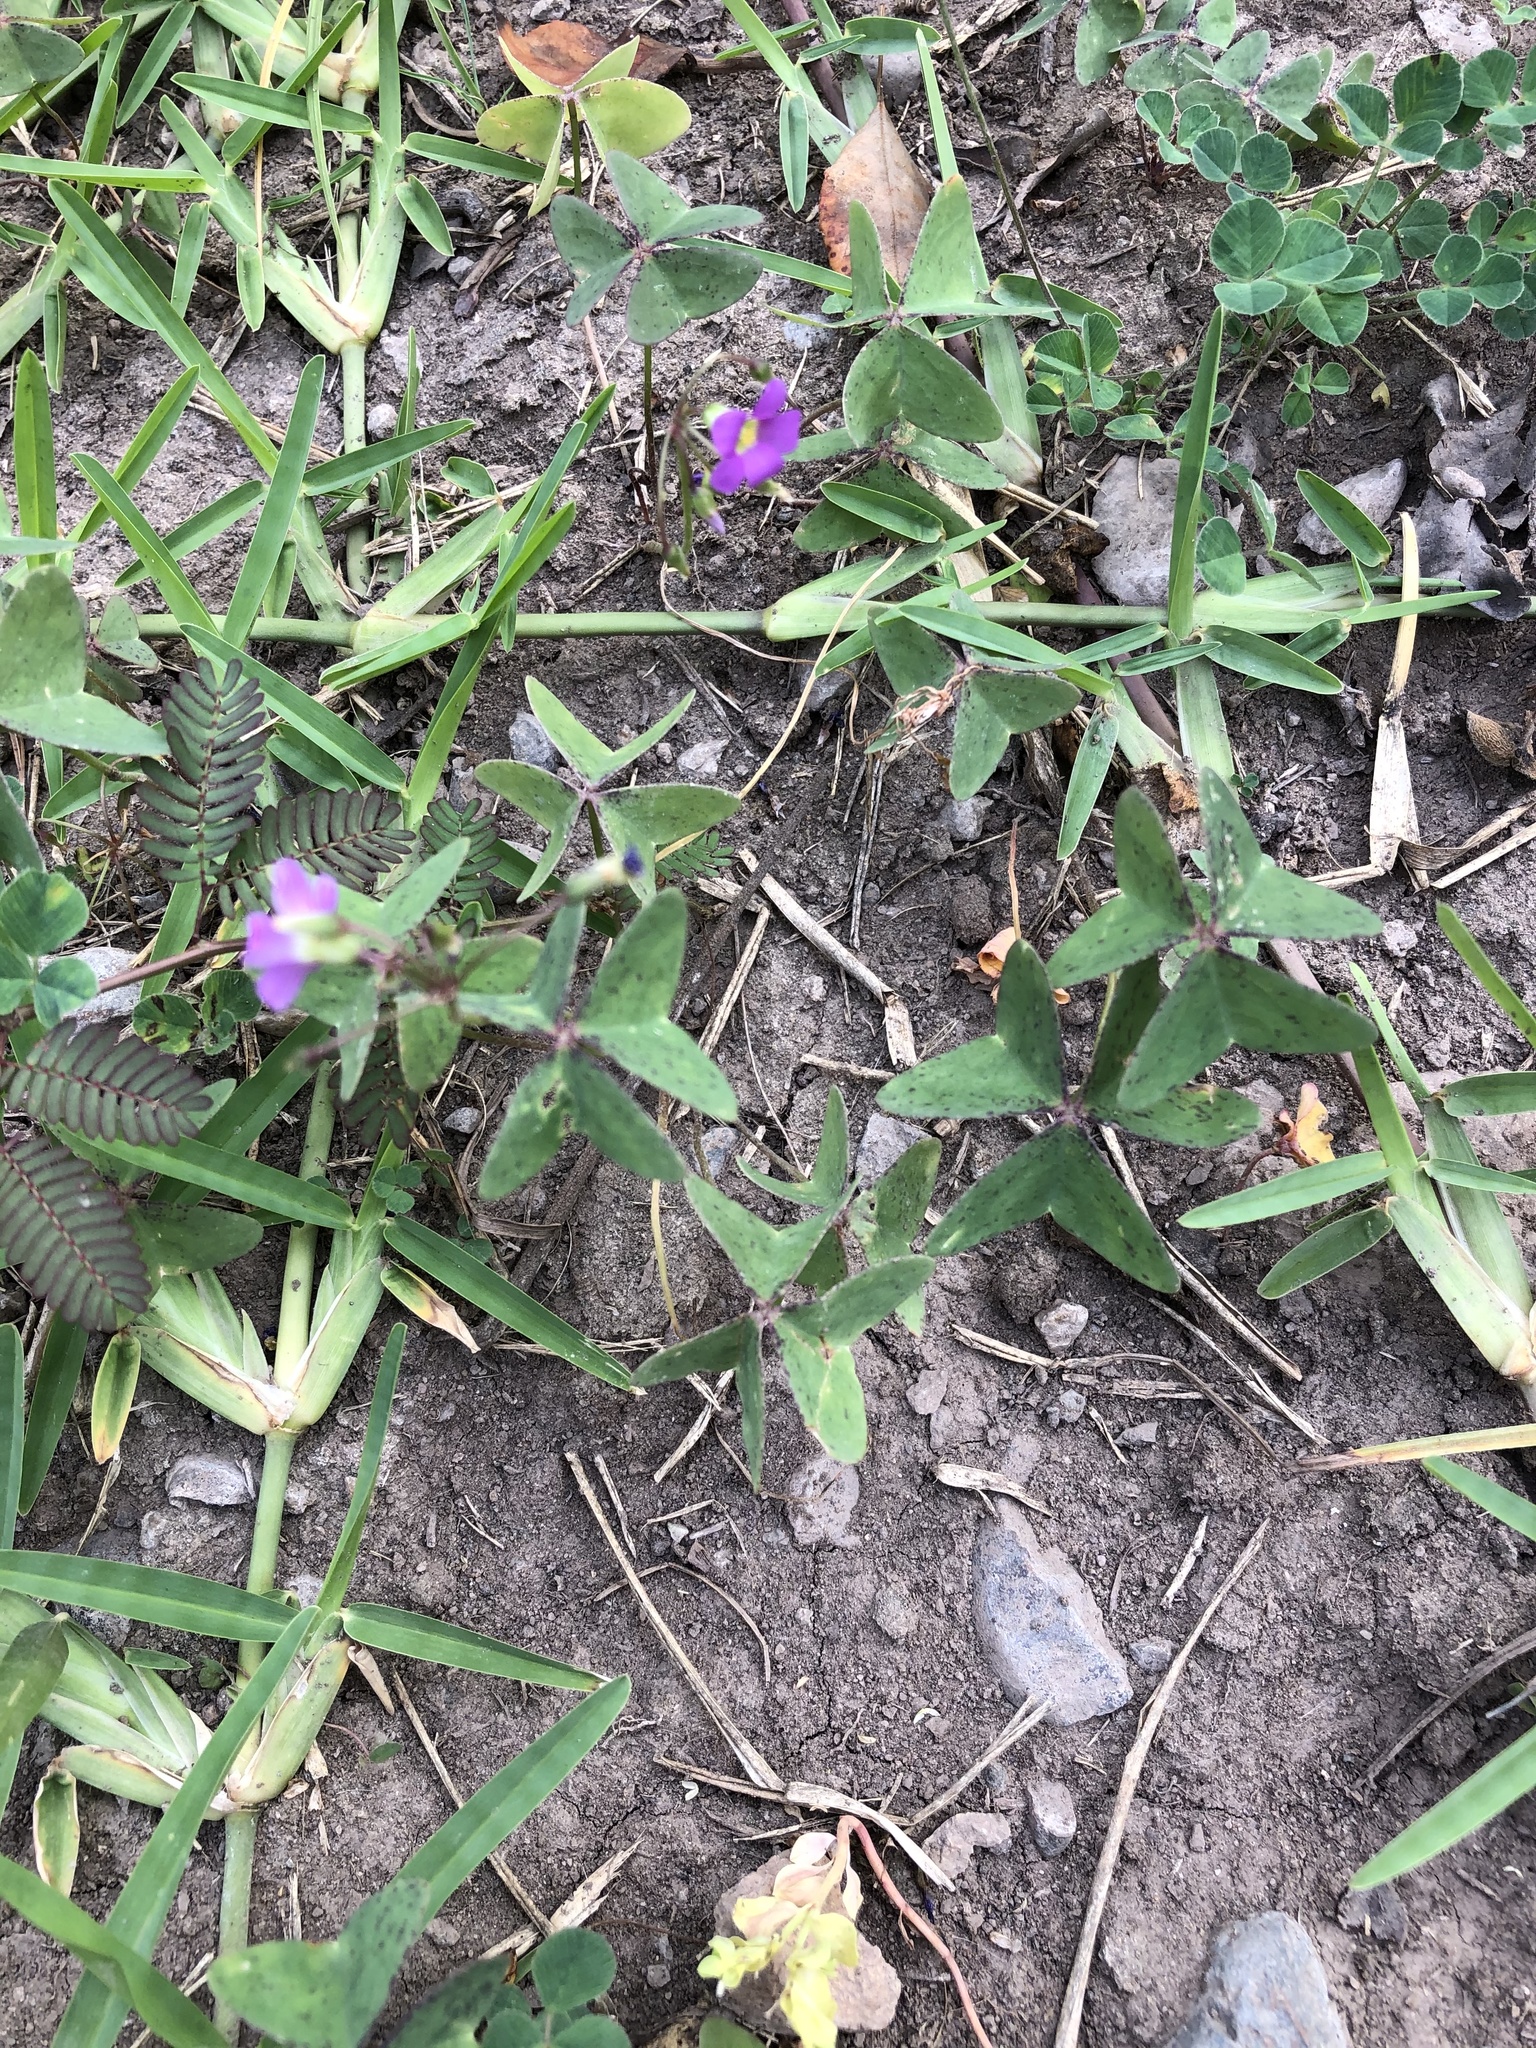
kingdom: Plantae
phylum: Tracheophyta
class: Magnoliopsida
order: Oxalidales
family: Oxalidaceae
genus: Oxalis
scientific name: Oxalis latifolia
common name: Garden pink-sorrel
